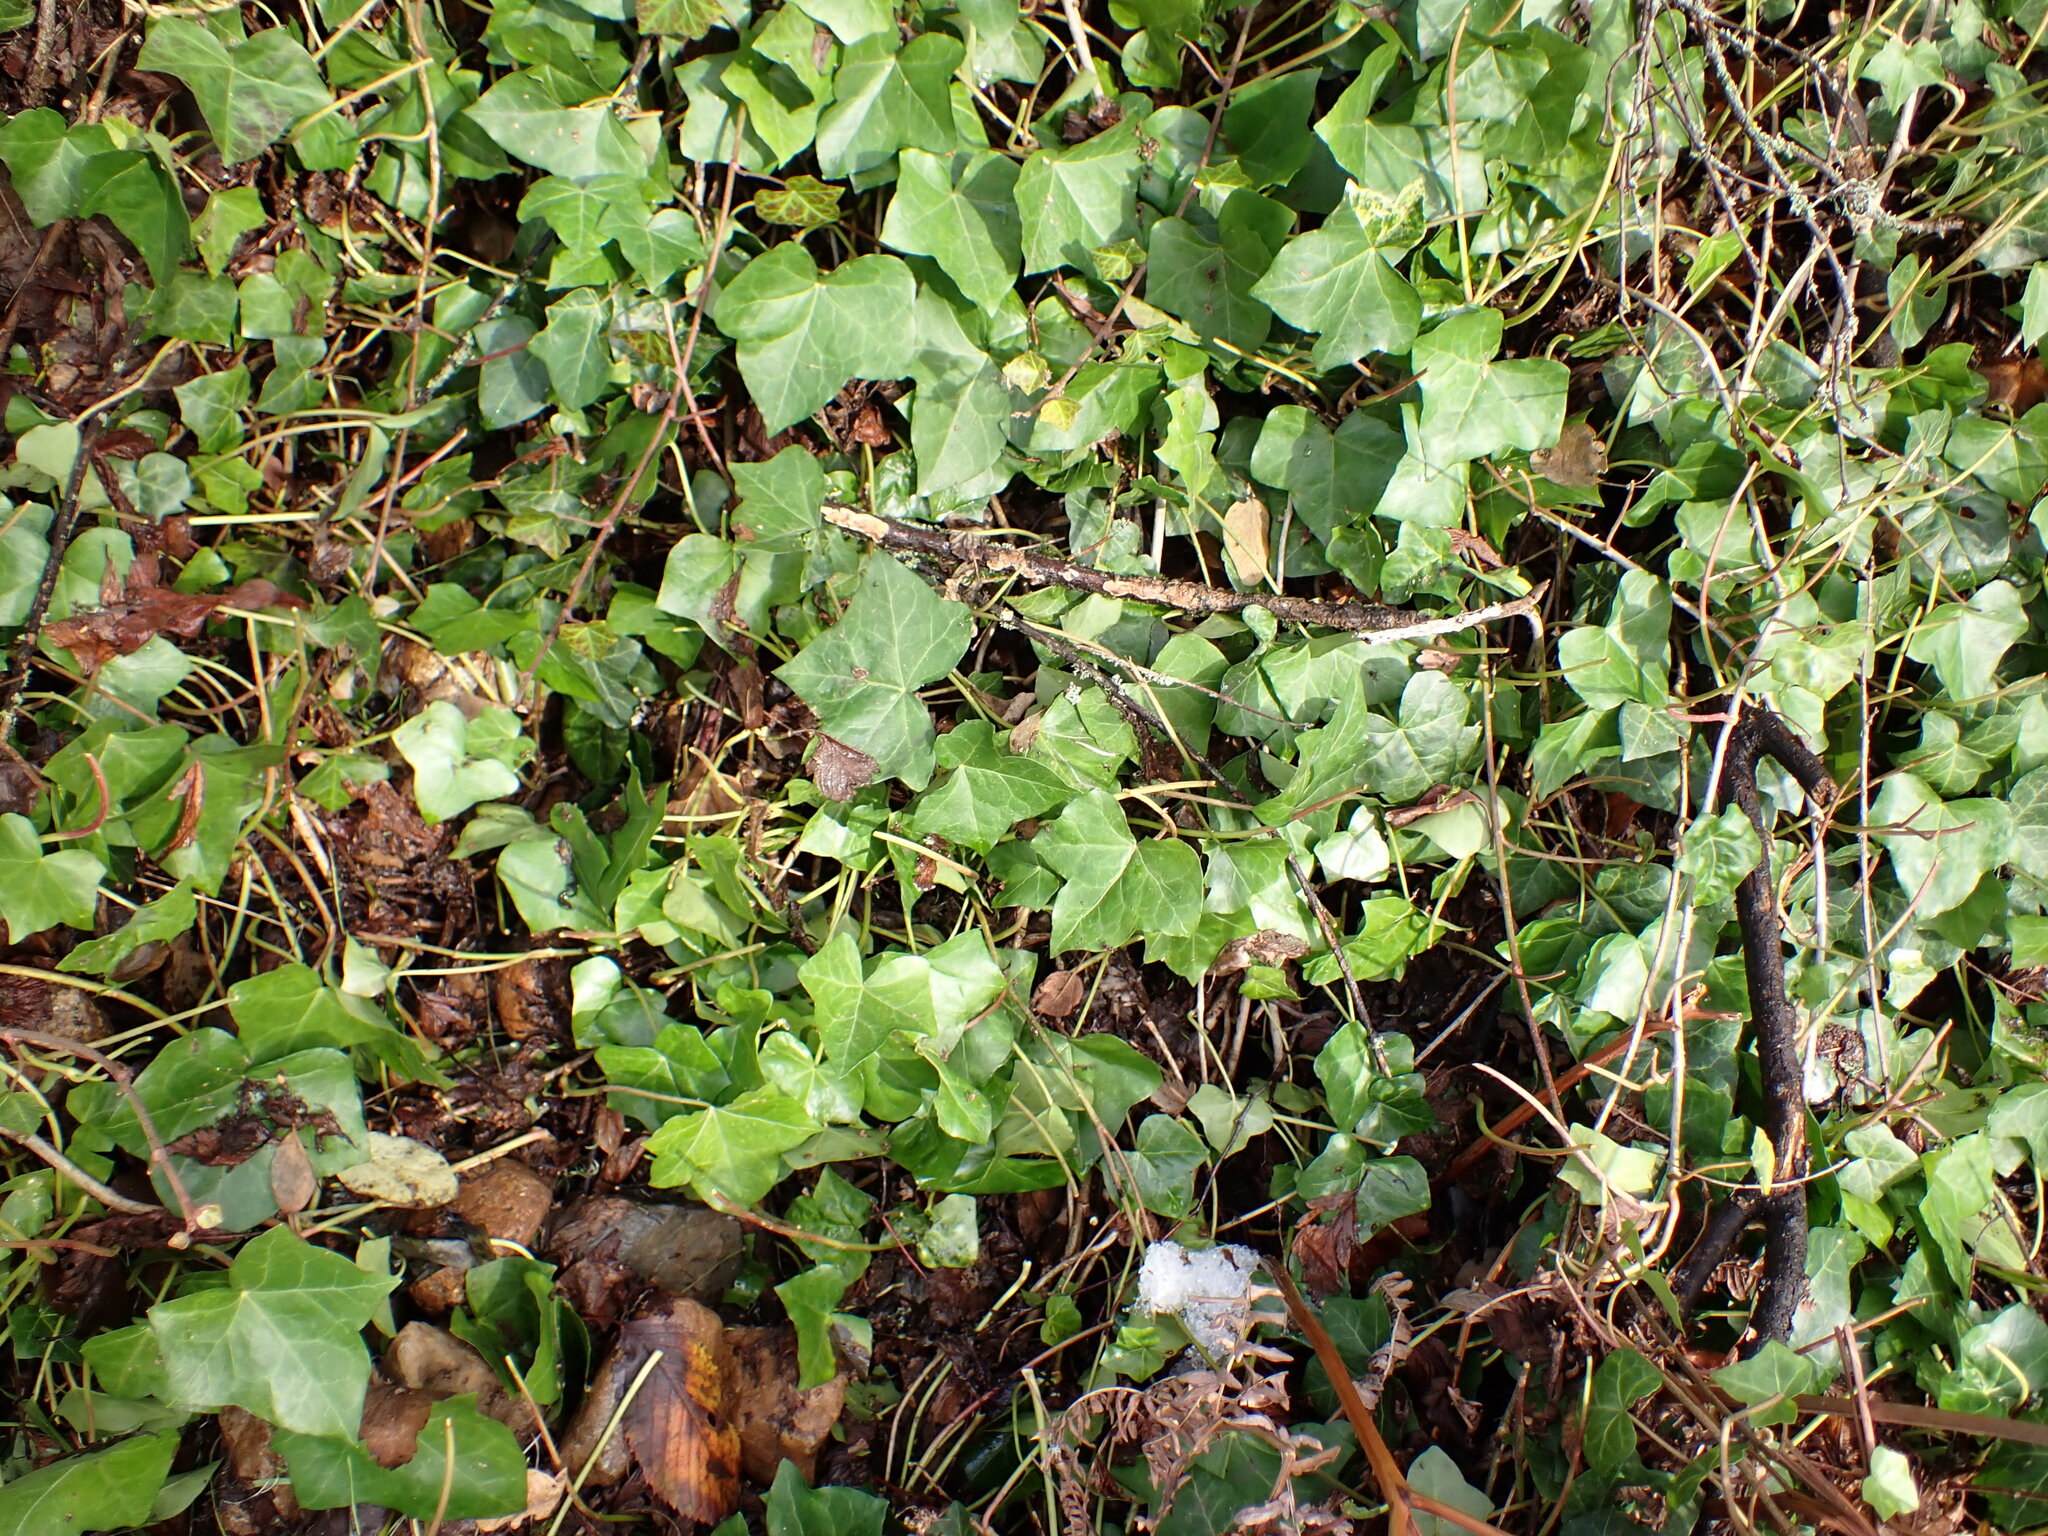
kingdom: Plantae
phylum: Tracheophyta
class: Magnoliopsida
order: Apiales
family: Araliaceae
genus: Hedera
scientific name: Hedera hibernica
